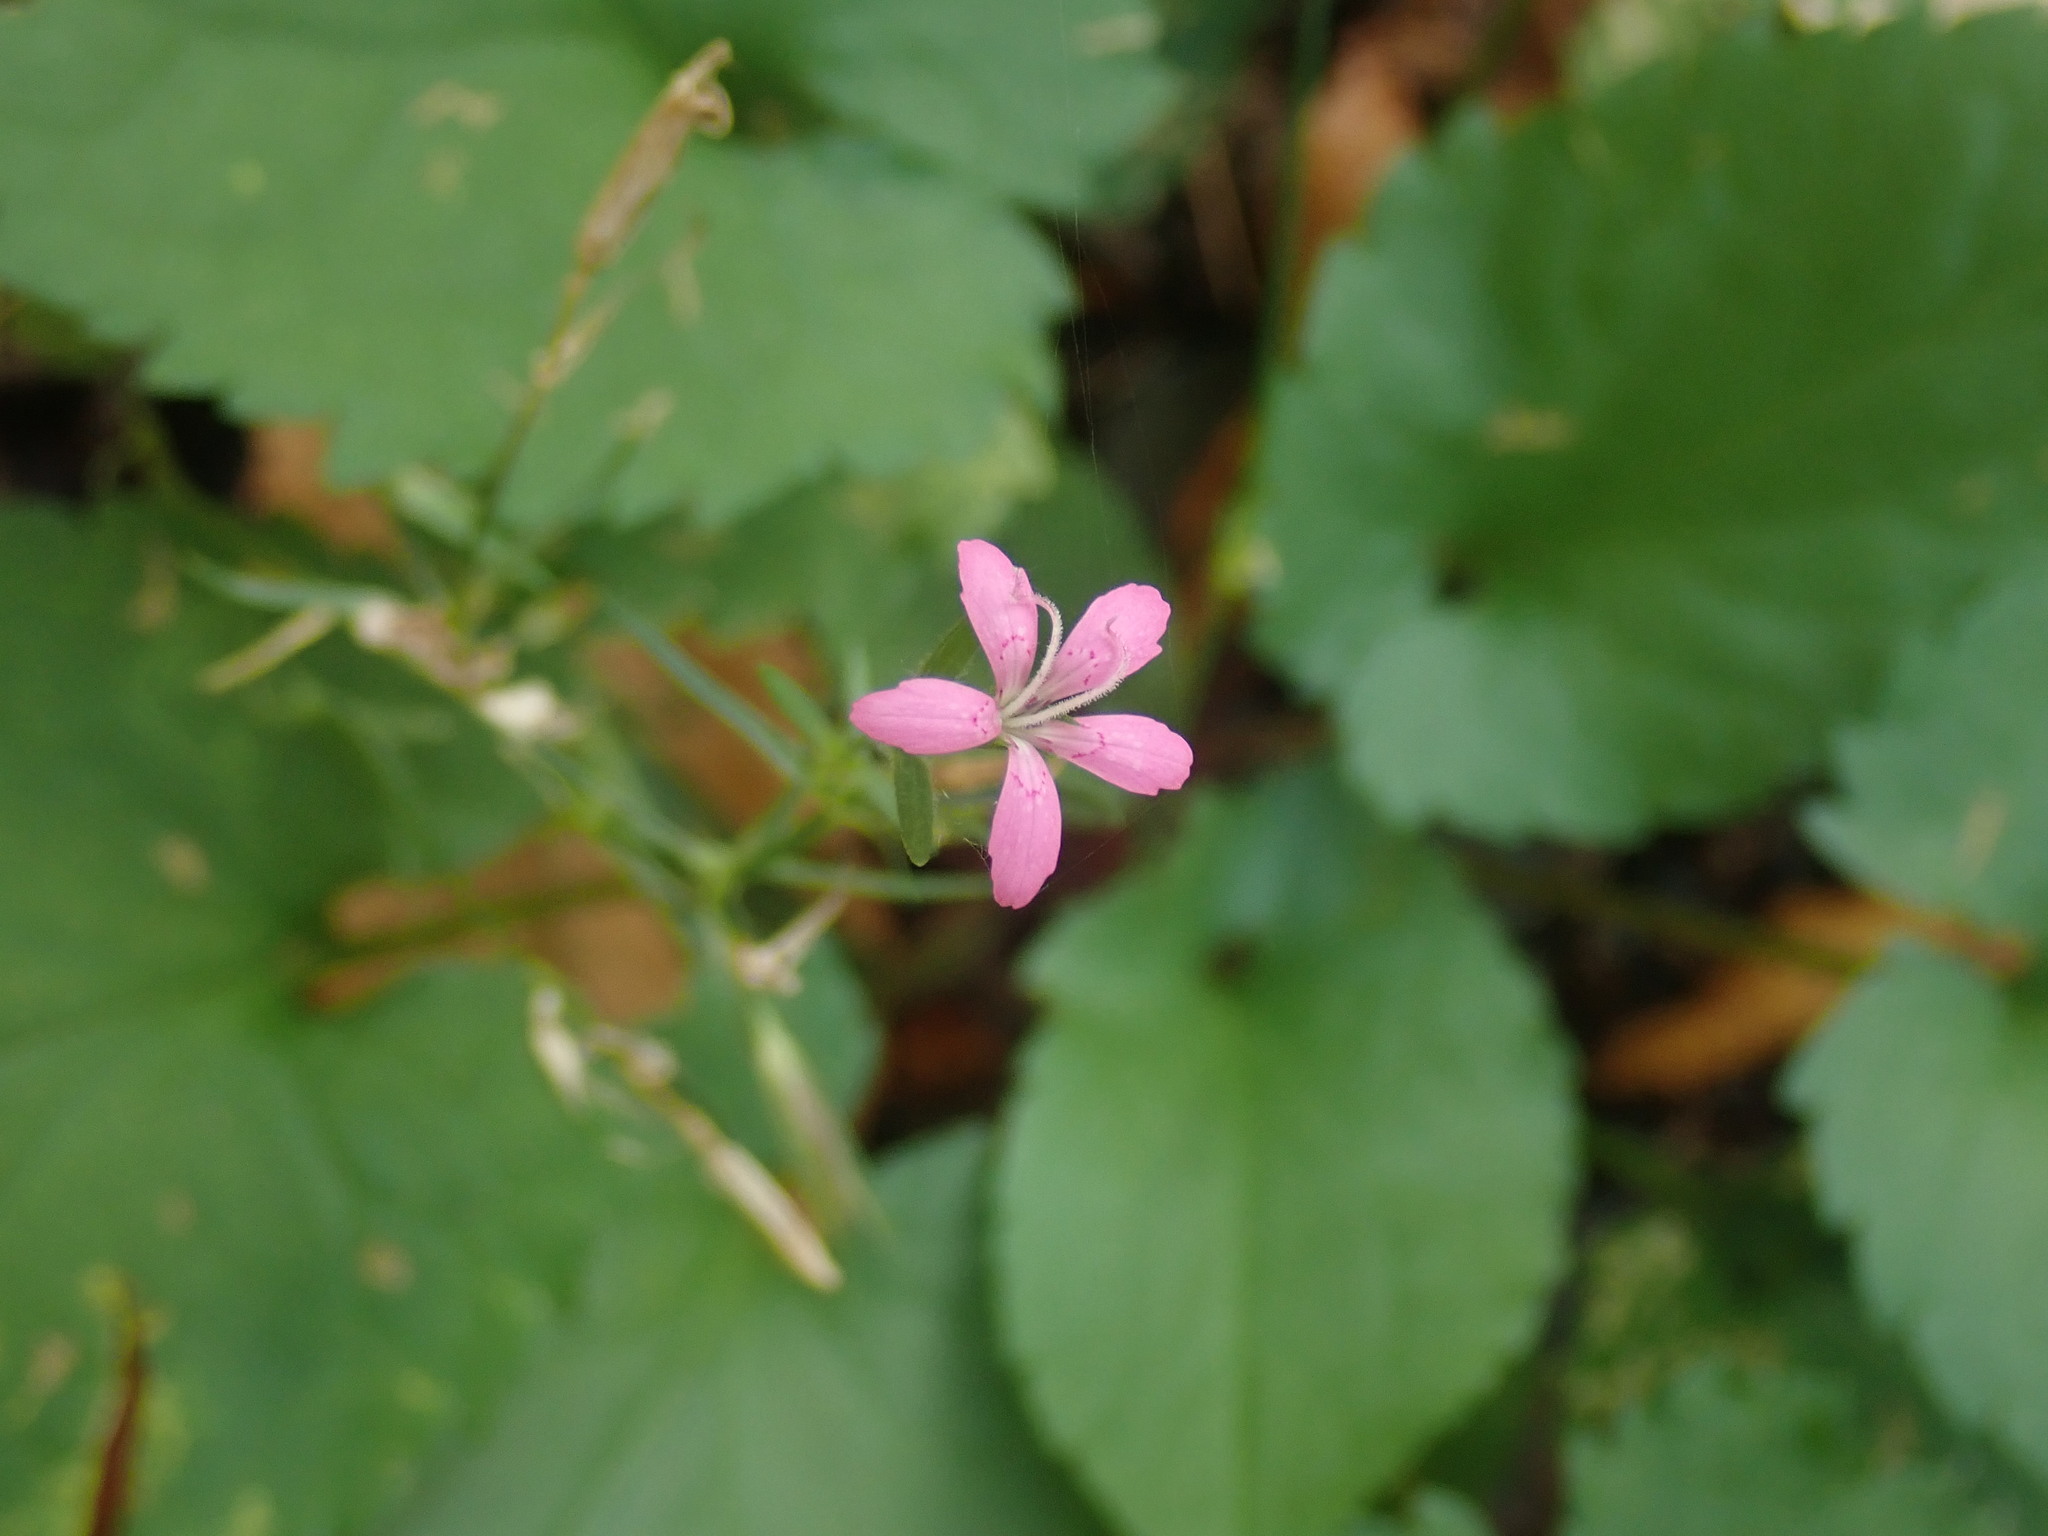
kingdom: Plantae
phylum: Tracheophyta
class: Magnoliopsida
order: Caryophyllales
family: Caryophyllaceae
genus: Dianthus
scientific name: Dianthus armeria
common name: Deptford pink
